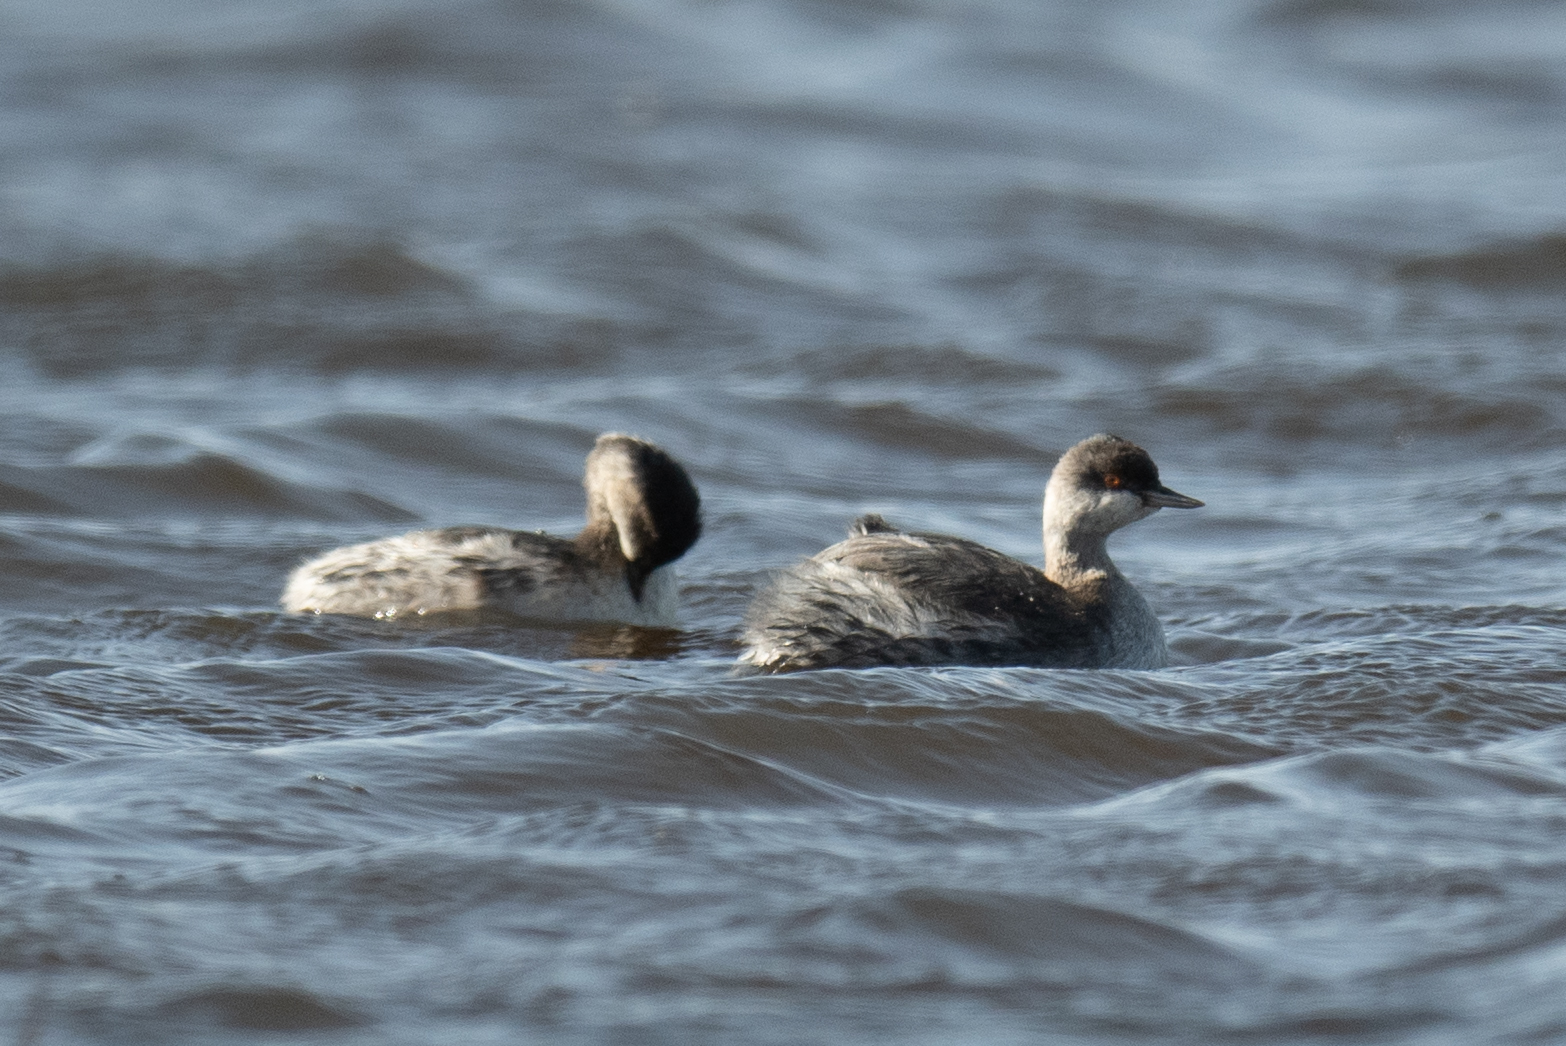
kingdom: Animalia
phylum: Chordata
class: Aves
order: Podicipediformes
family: Podicipedidae
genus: Podiceps
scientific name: Podiceps nigricollis
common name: Black-necked grebe
